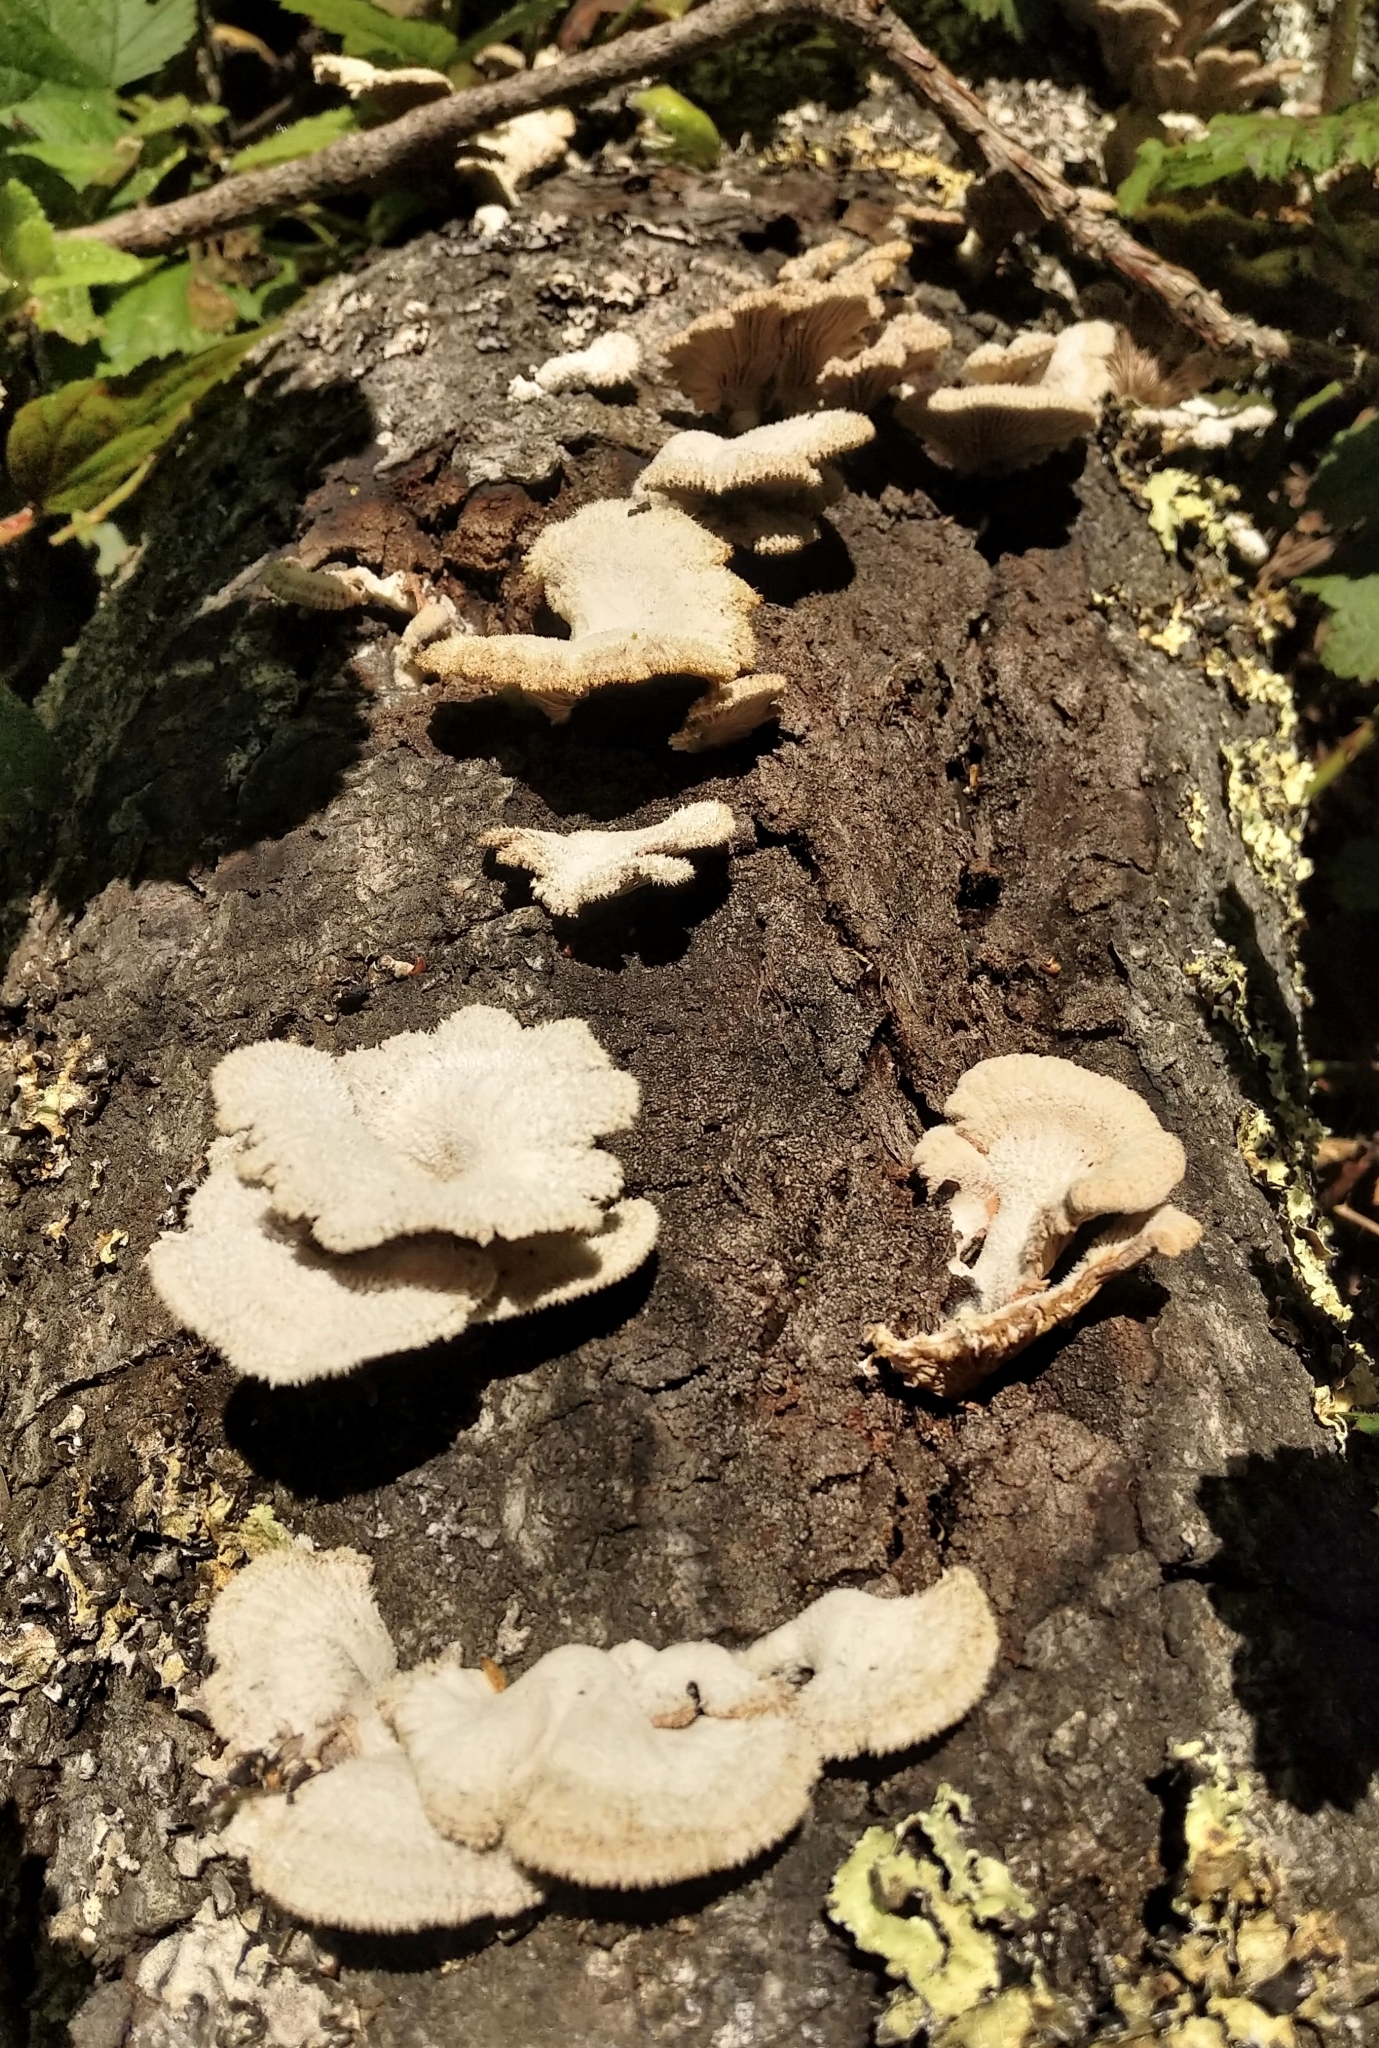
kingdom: Fungi
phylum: Basidiomycota
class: Agaricomycetes
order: Agaricales
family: Schizophyllaceae
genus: Schizophyllum
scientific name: Schizophyllum commune
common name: Common porecrust
